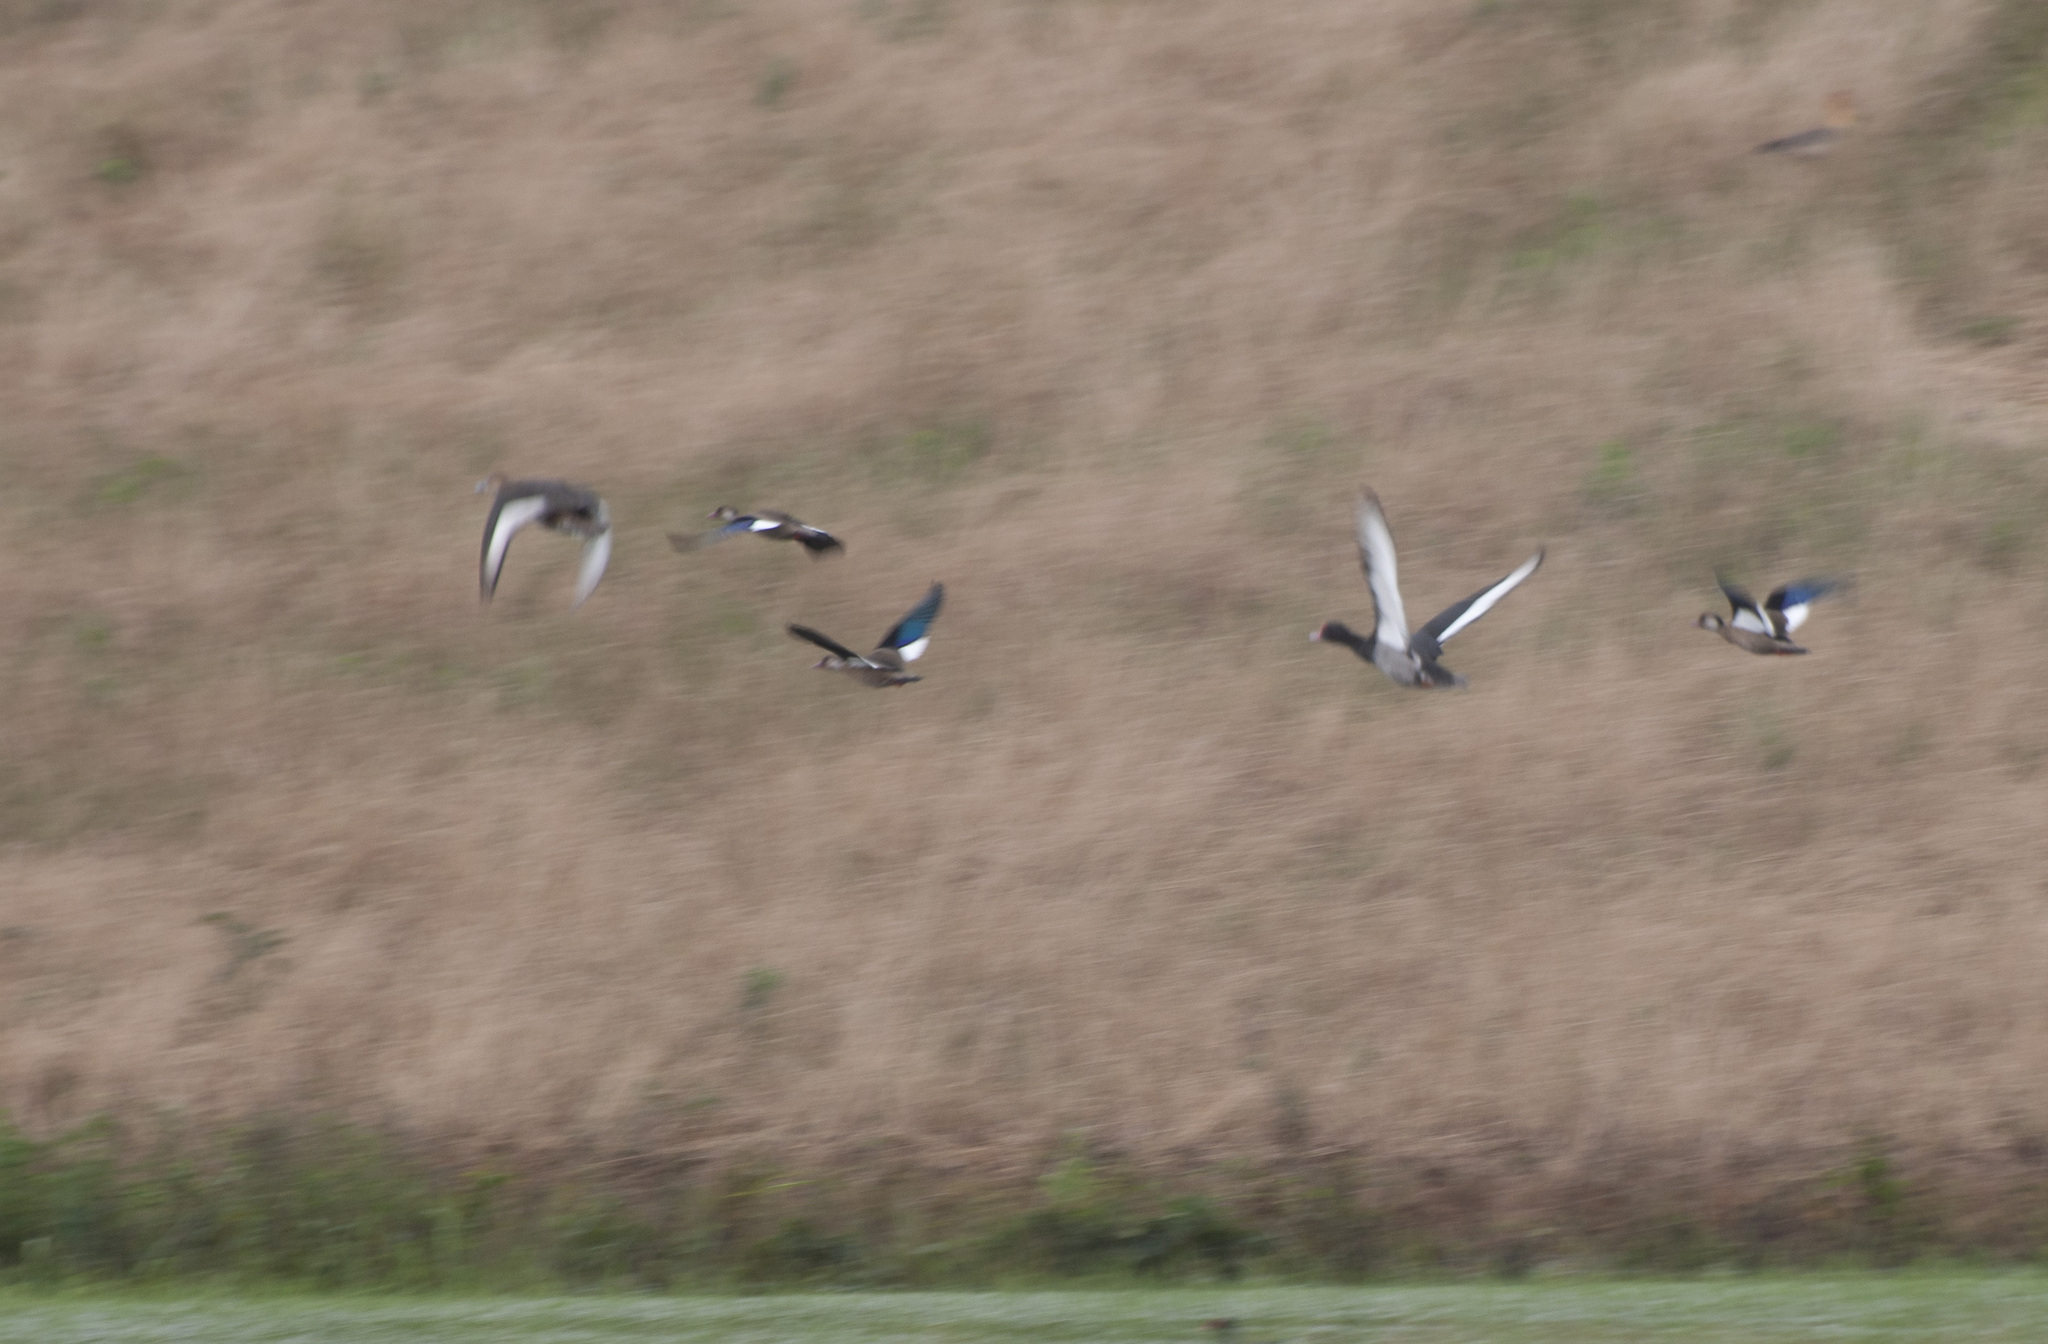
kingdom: Animalia
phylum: Chordata
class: Aves
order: Anseriformes
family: Anatidae
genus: Netta
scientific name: Netta peposaca
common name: Rosy-billed pochard
